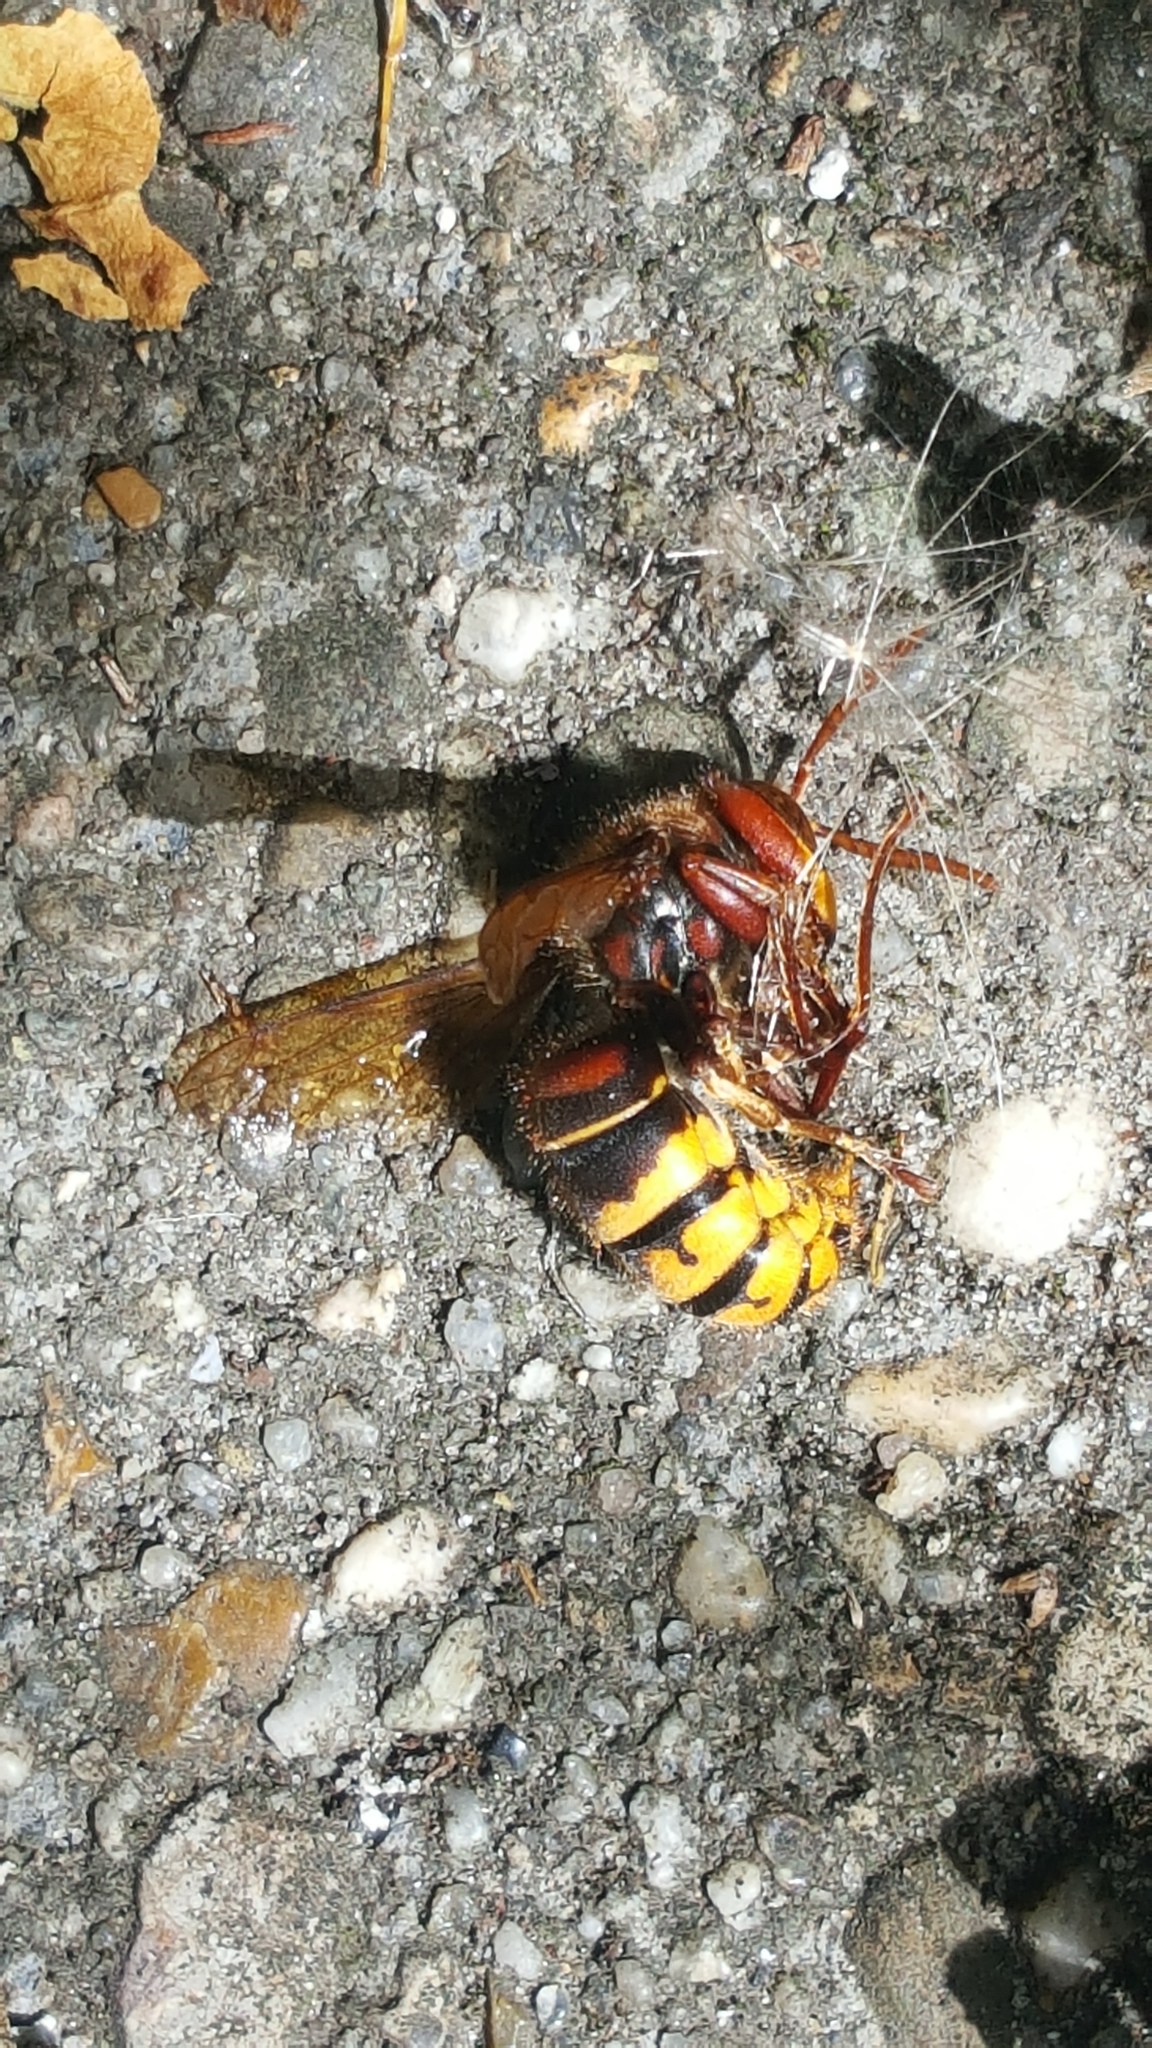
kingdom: Animalia
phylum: Arthropoda
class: Insecta
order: Hymenoptera
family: Vespidae
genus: Vespa
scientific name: Vespa crabro
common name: Hornet
